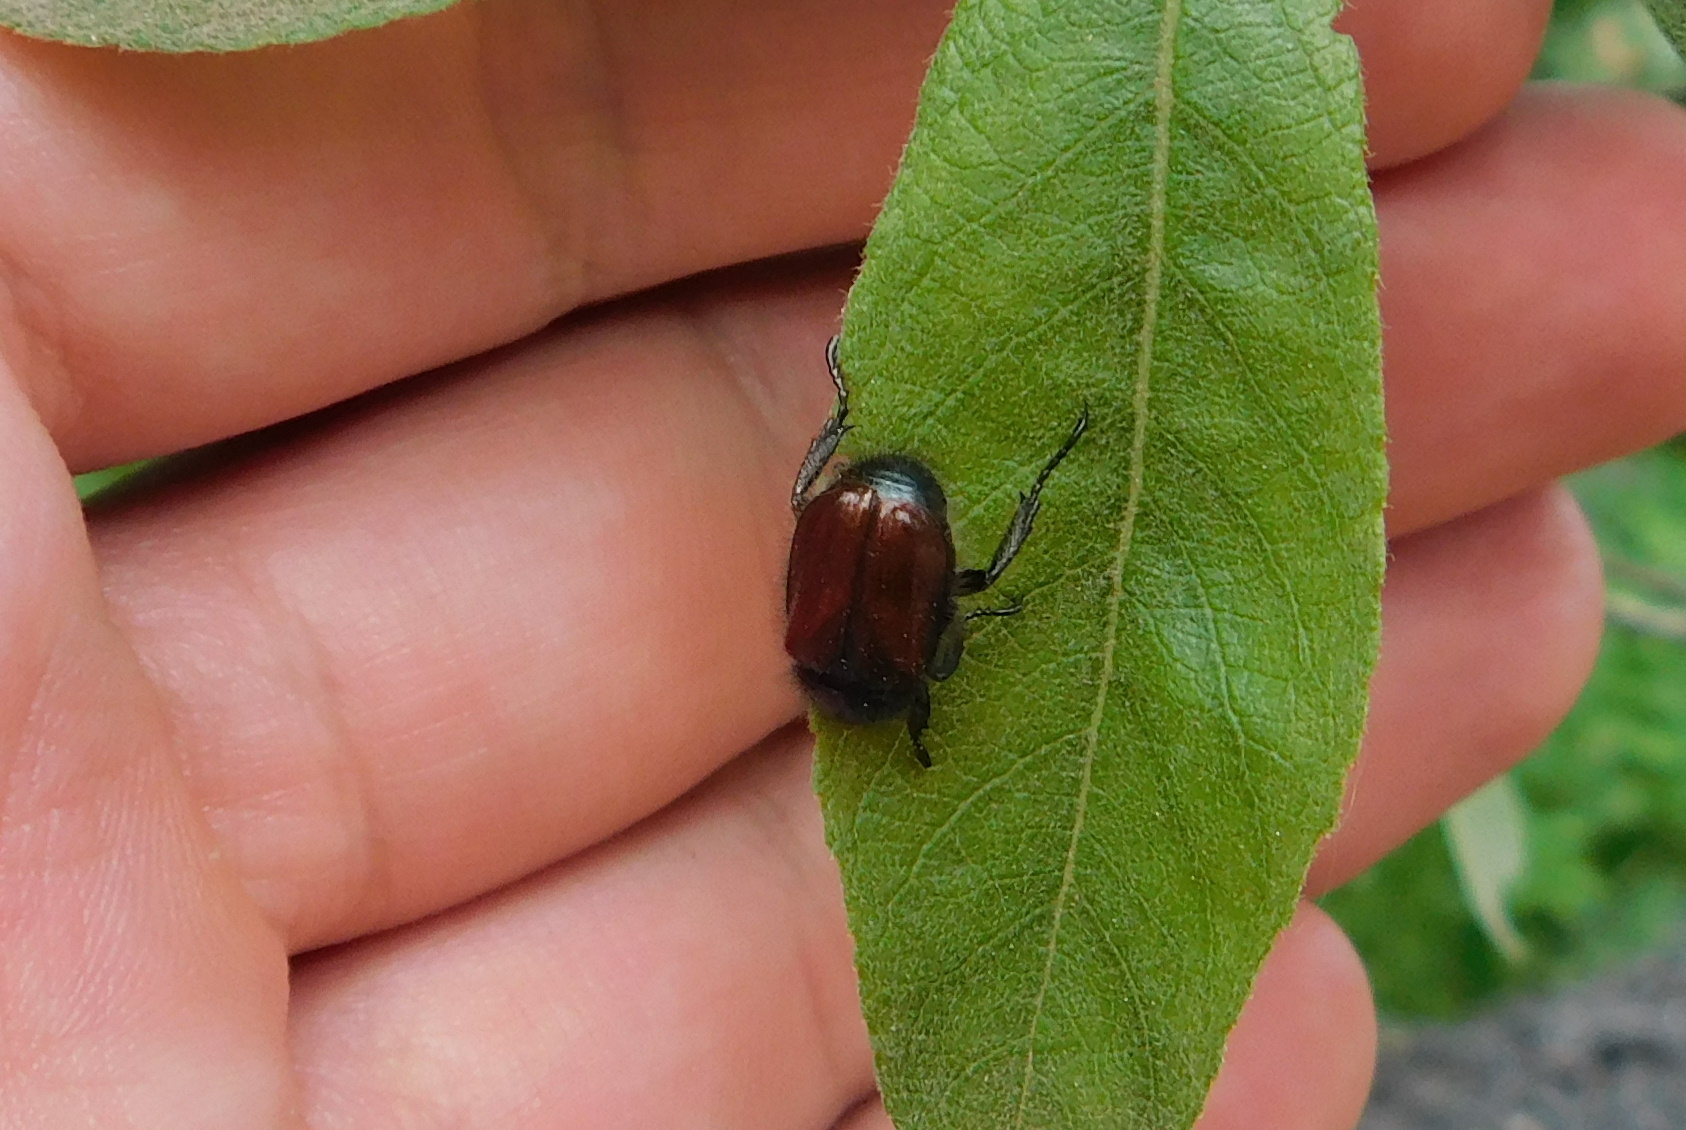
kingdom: Animalia
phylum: Arthropoda
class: Insecta
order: Coleoptera
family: Scarabaeidae
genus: Phyllopertha
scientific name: Phyllopertha horticola
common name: Garden chafer
